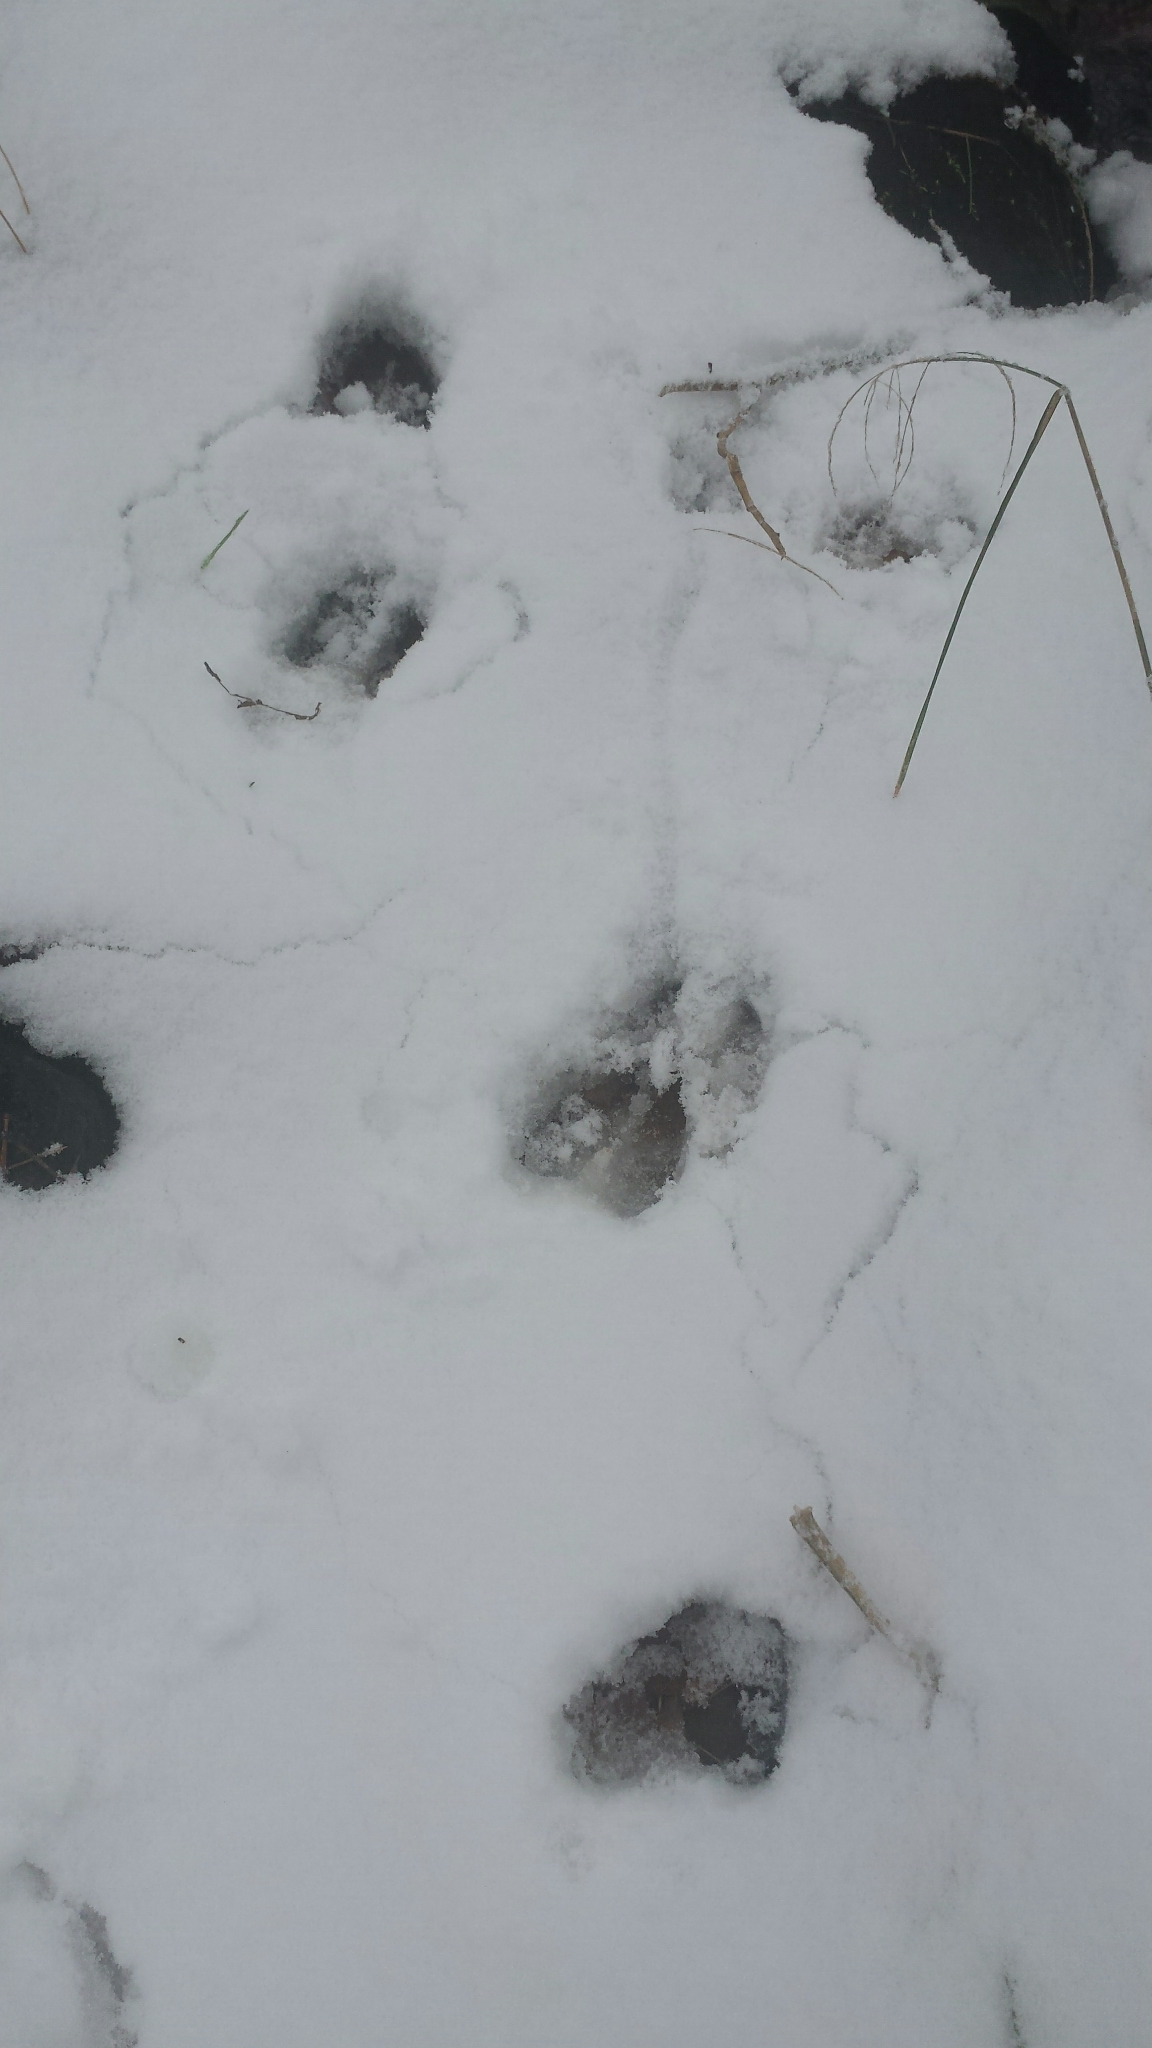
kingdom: Animalia
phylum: Chordata
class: Mammalia
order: Artiodactyla
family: Cervidae
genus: Odocoileus
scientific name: Odocoileus virginianus
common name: White-tailed deer
